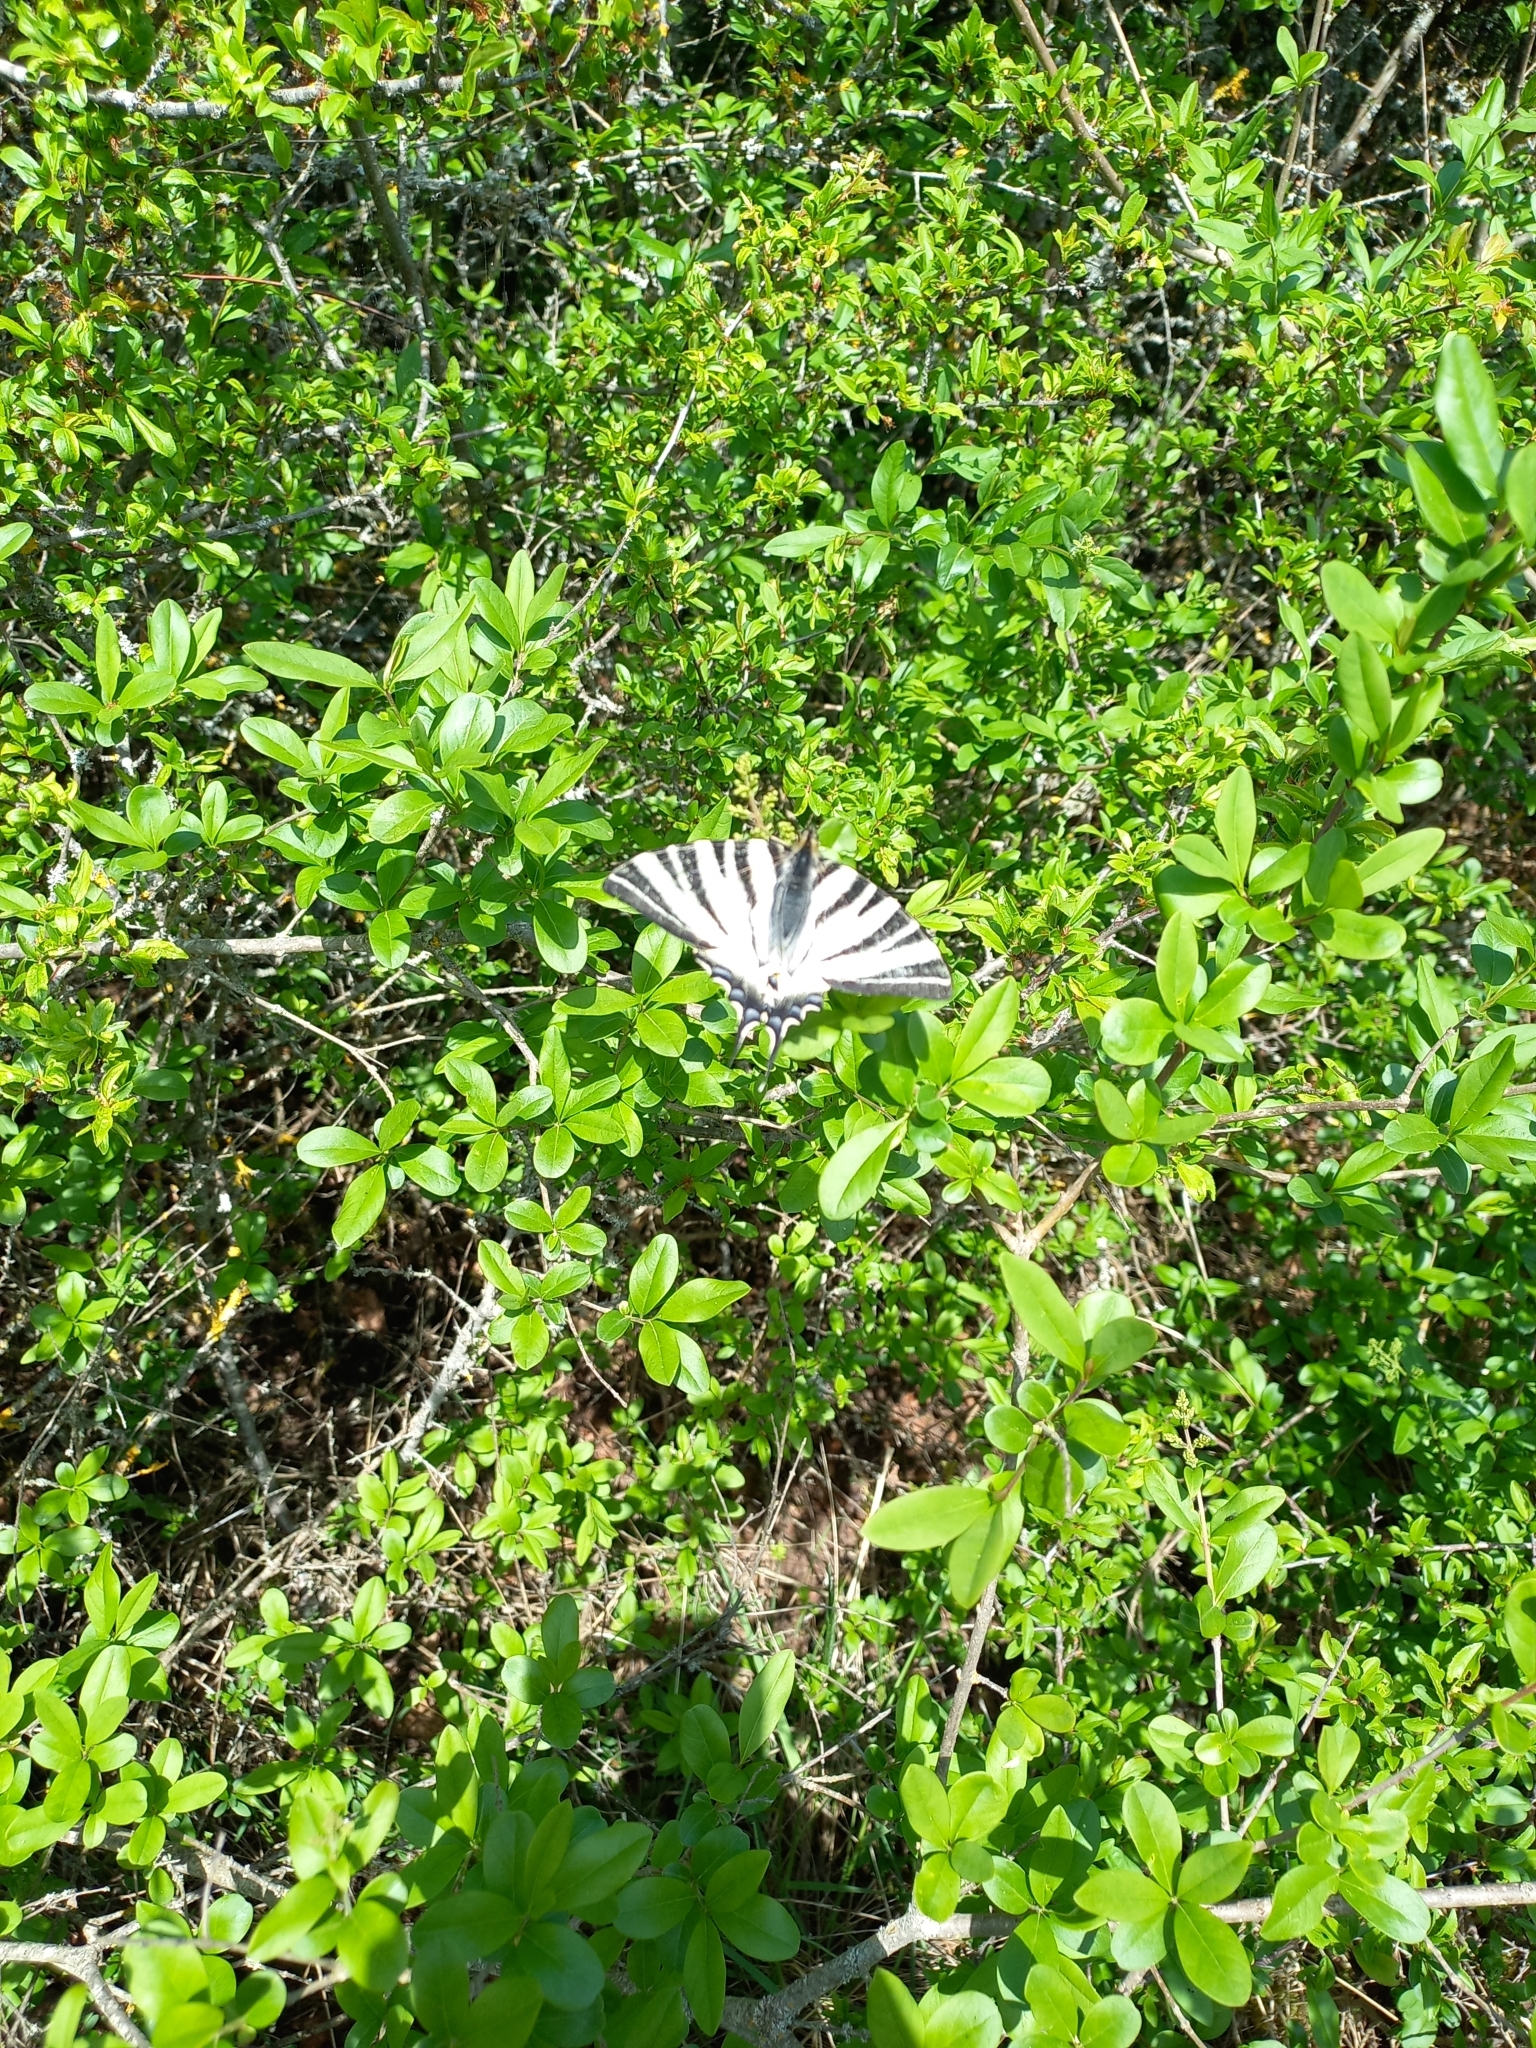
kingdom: Animalia
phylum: Arthropoda
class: Insecta
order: Lepidoptera
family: Papilionidae
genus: Iphiclides
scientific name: Iphiclides podalirius
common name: Scarce swallowtail
